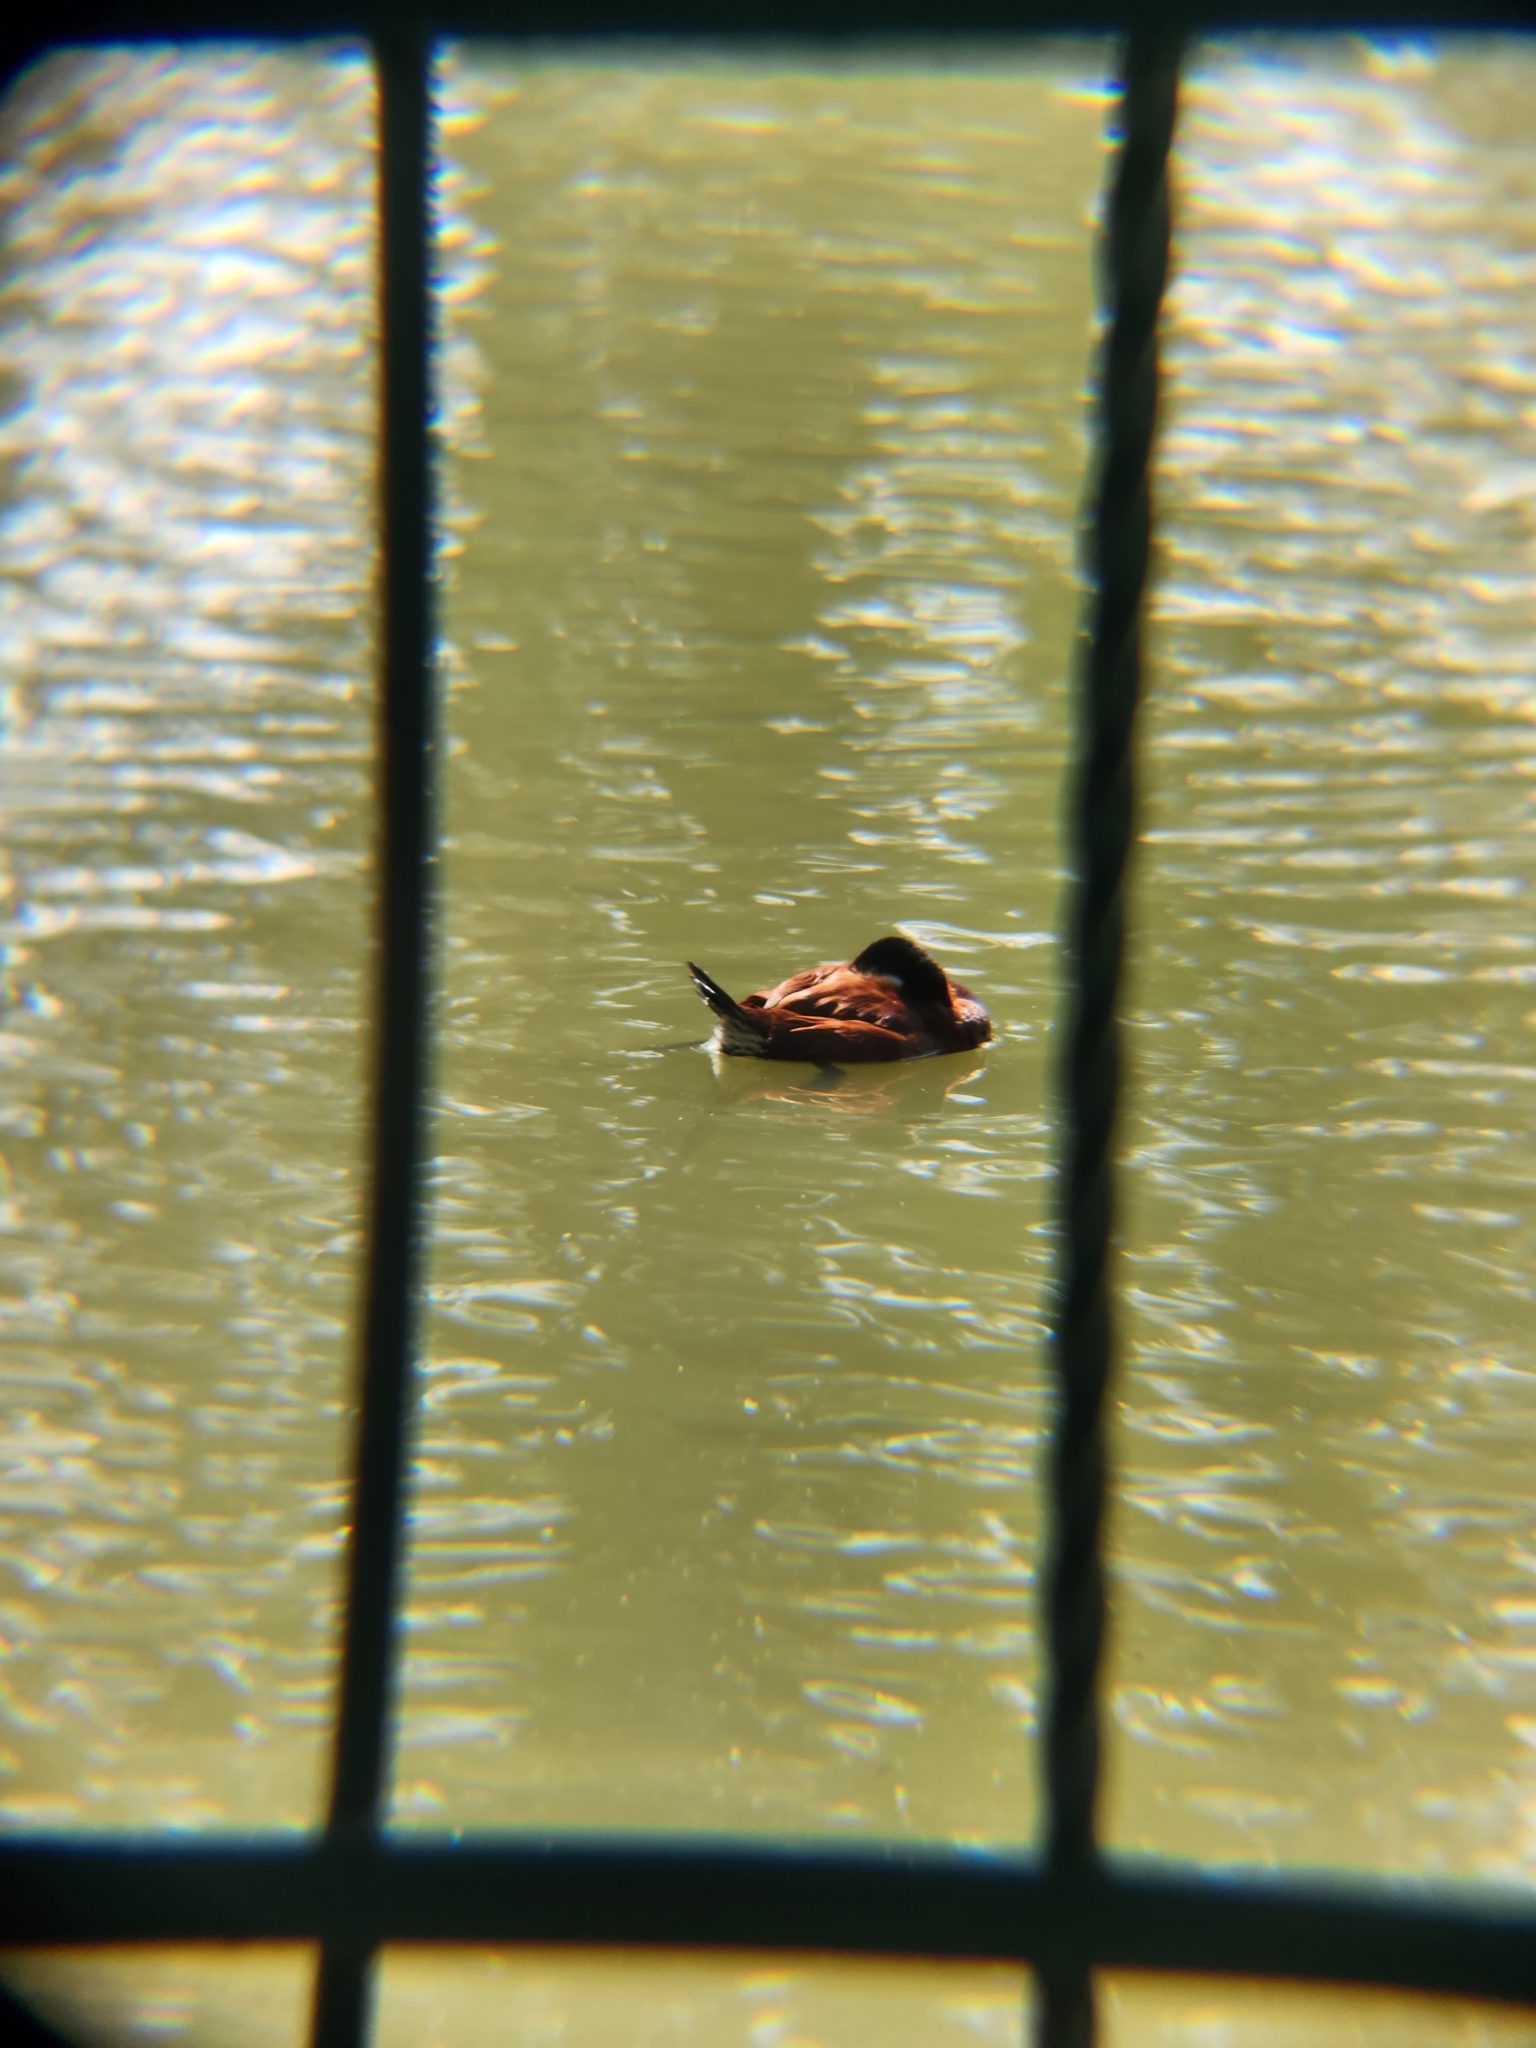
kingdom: Animalia
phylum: Chordata
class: Aves
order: Anseriformes
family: Anatidae
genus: Oxyura
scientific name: Oxyura jamaicensis
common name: Ruddy duck
